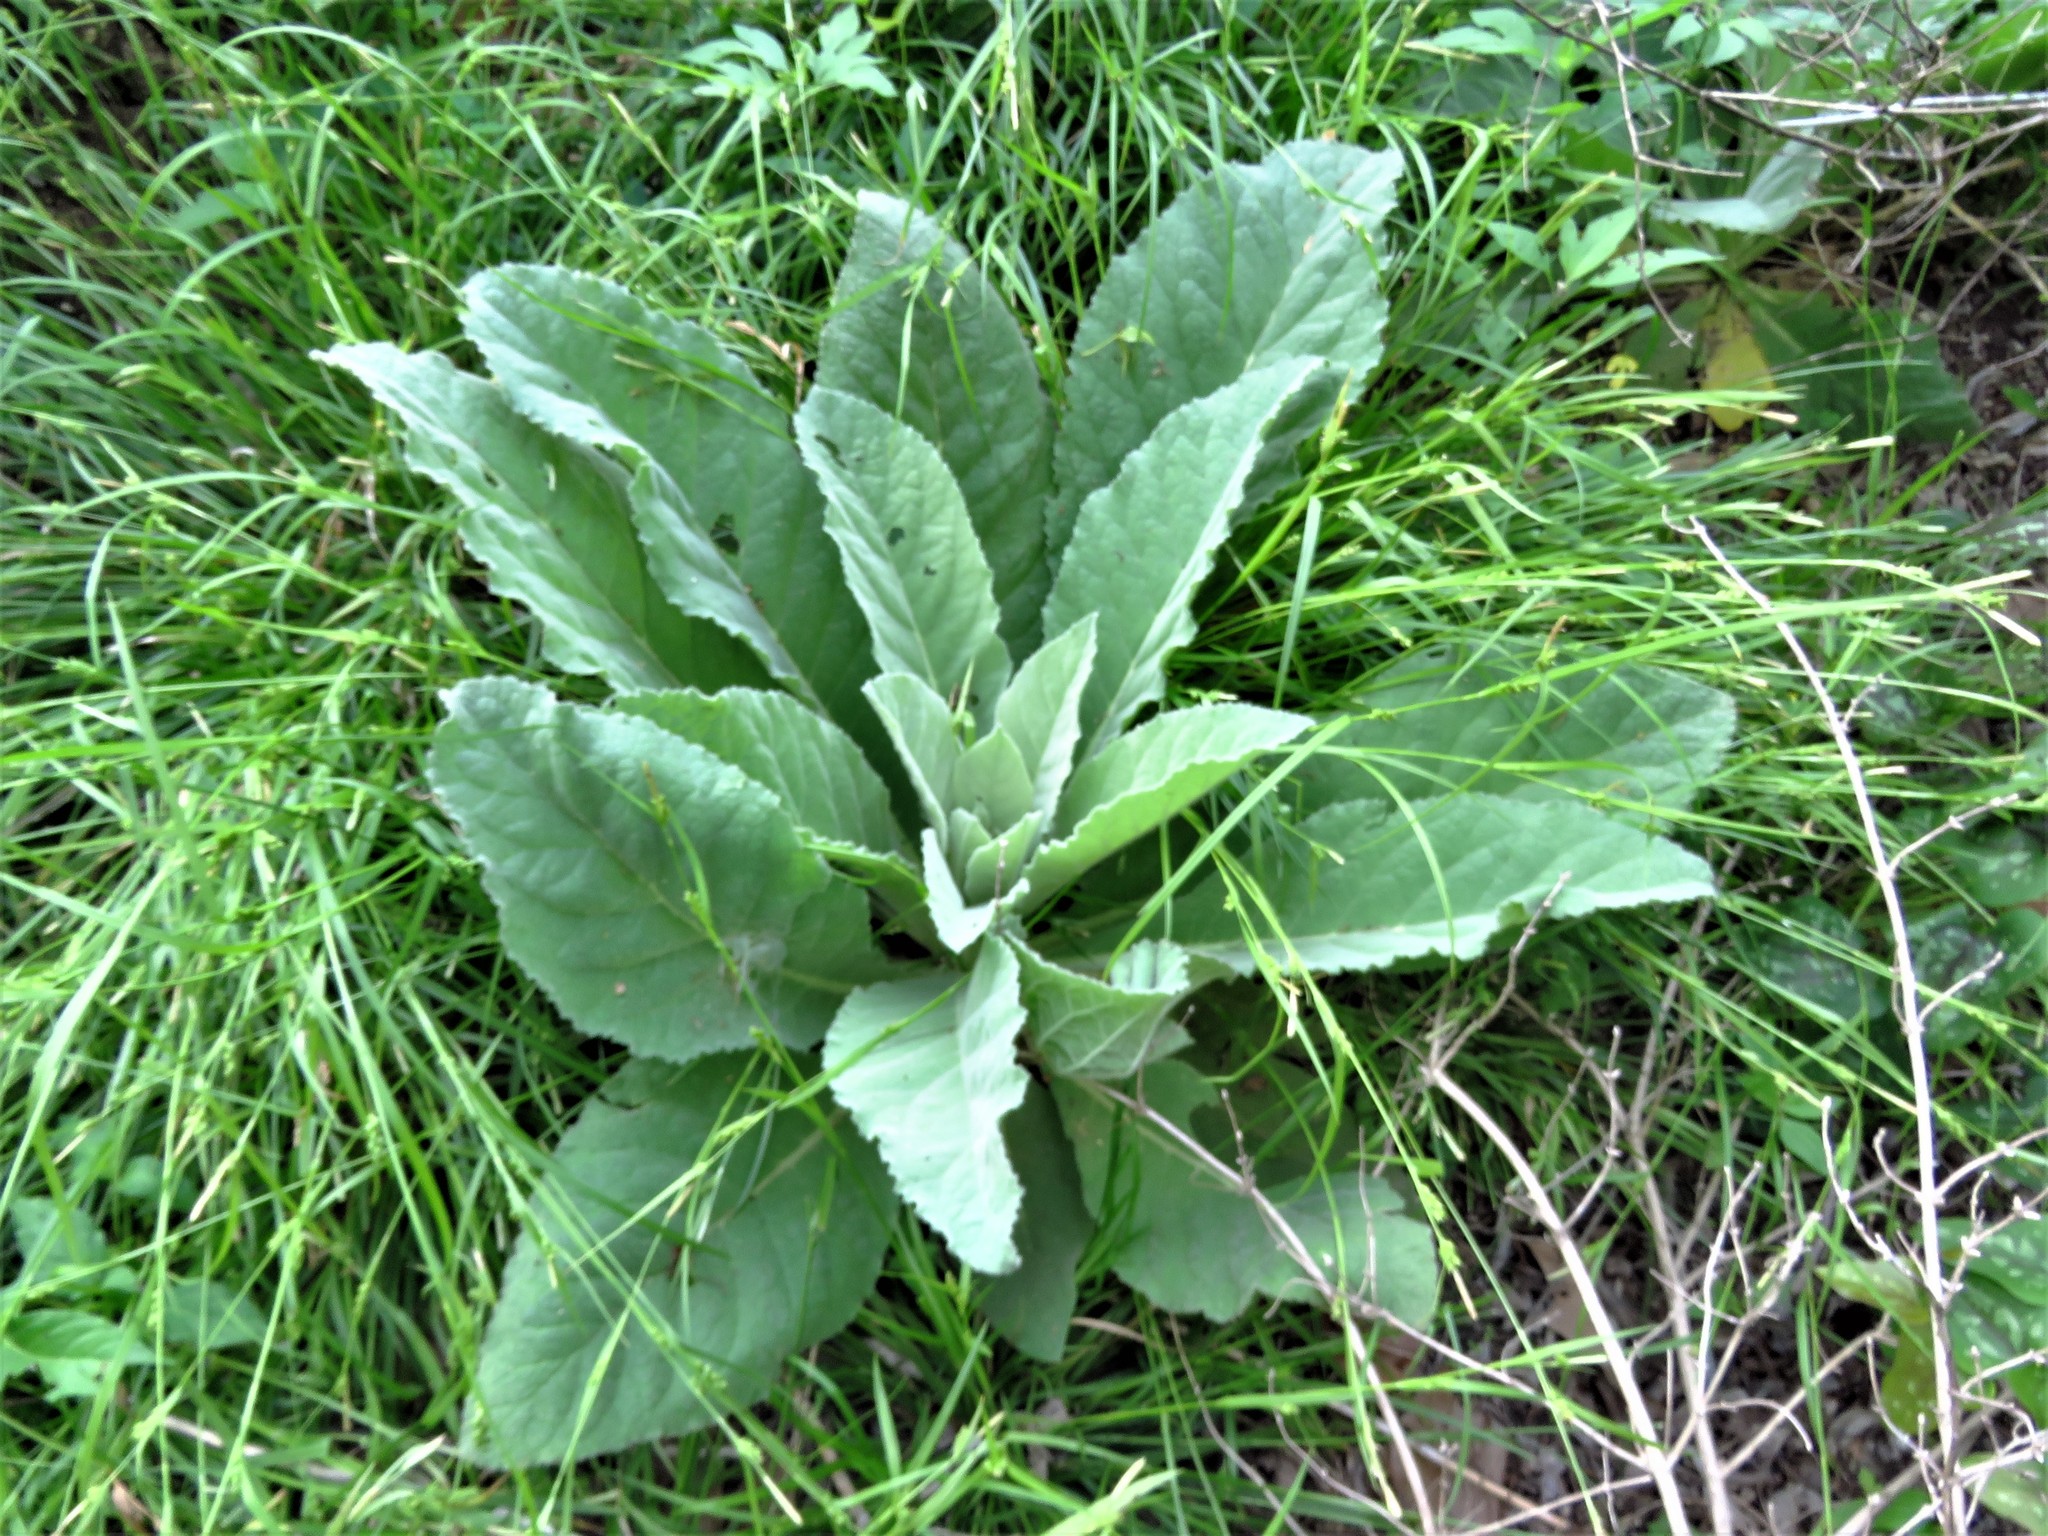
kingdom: Plantae
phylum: Tracheophyta
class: Magnoliopsida
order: Lamiales
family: Scrophulariaceae
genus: Verbascum
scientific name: Verbascum thapsus
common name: Common mullein
